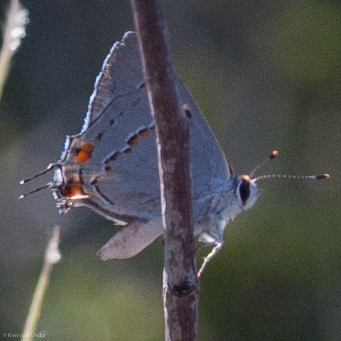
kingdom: Animalia
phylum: Arthropoda
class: Insecta
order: Lepidoptera
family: Lycaenidae
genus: Strymon
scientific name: Strymon melinus
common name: Gray hairstreak
